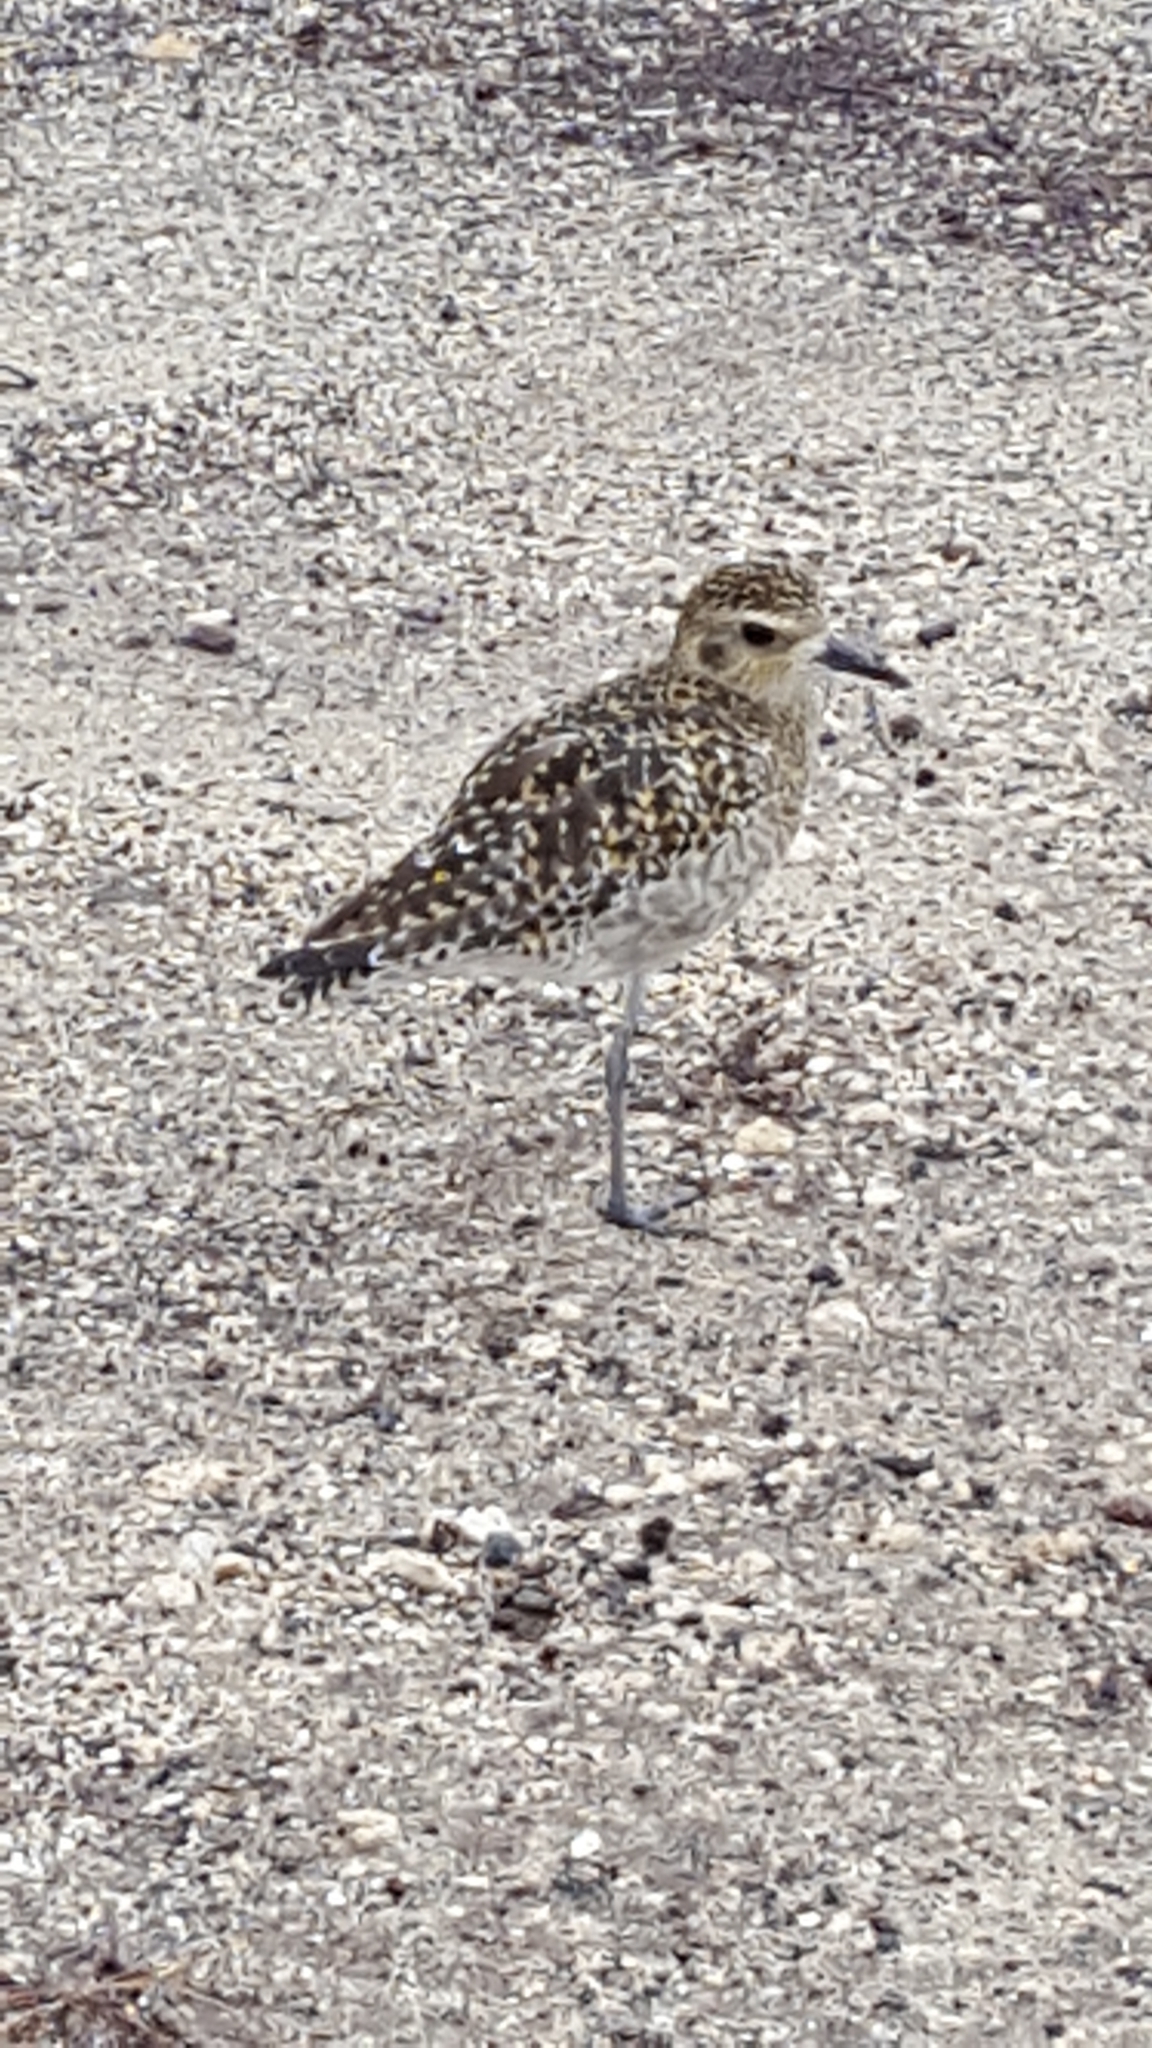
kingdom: Animalia
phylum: Chordata
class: Aves
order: Charadriiformes
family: Charadriidae
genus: Pluvialis
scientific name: Pluvialis fulva
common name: Pacific golden plover
